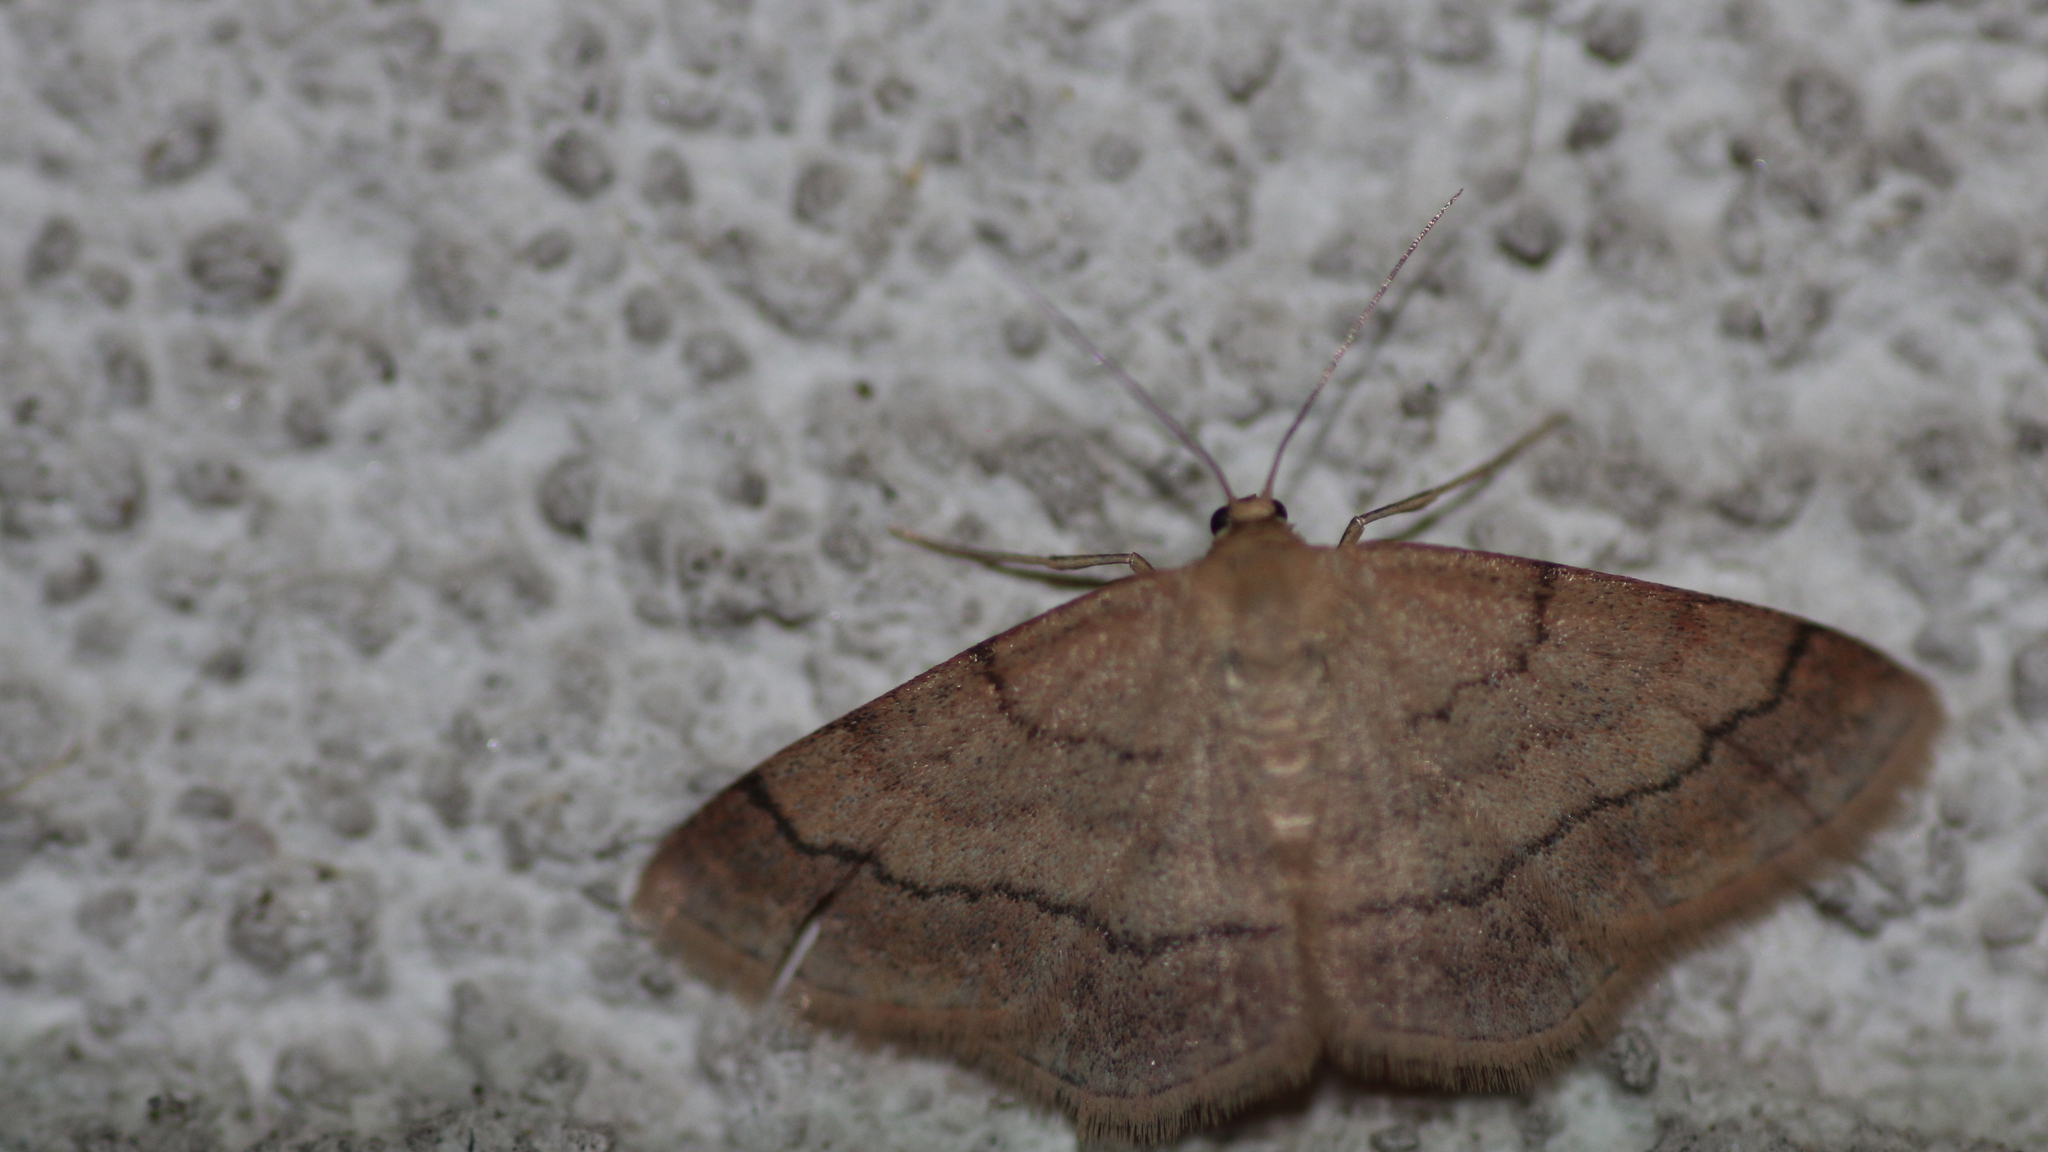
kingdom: Animalia
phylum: Arthropoda
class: Insecta
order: Lepidoptera
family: Geometridae
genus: Scopula
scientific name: Scopula rubiginata
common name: Tawny wave
